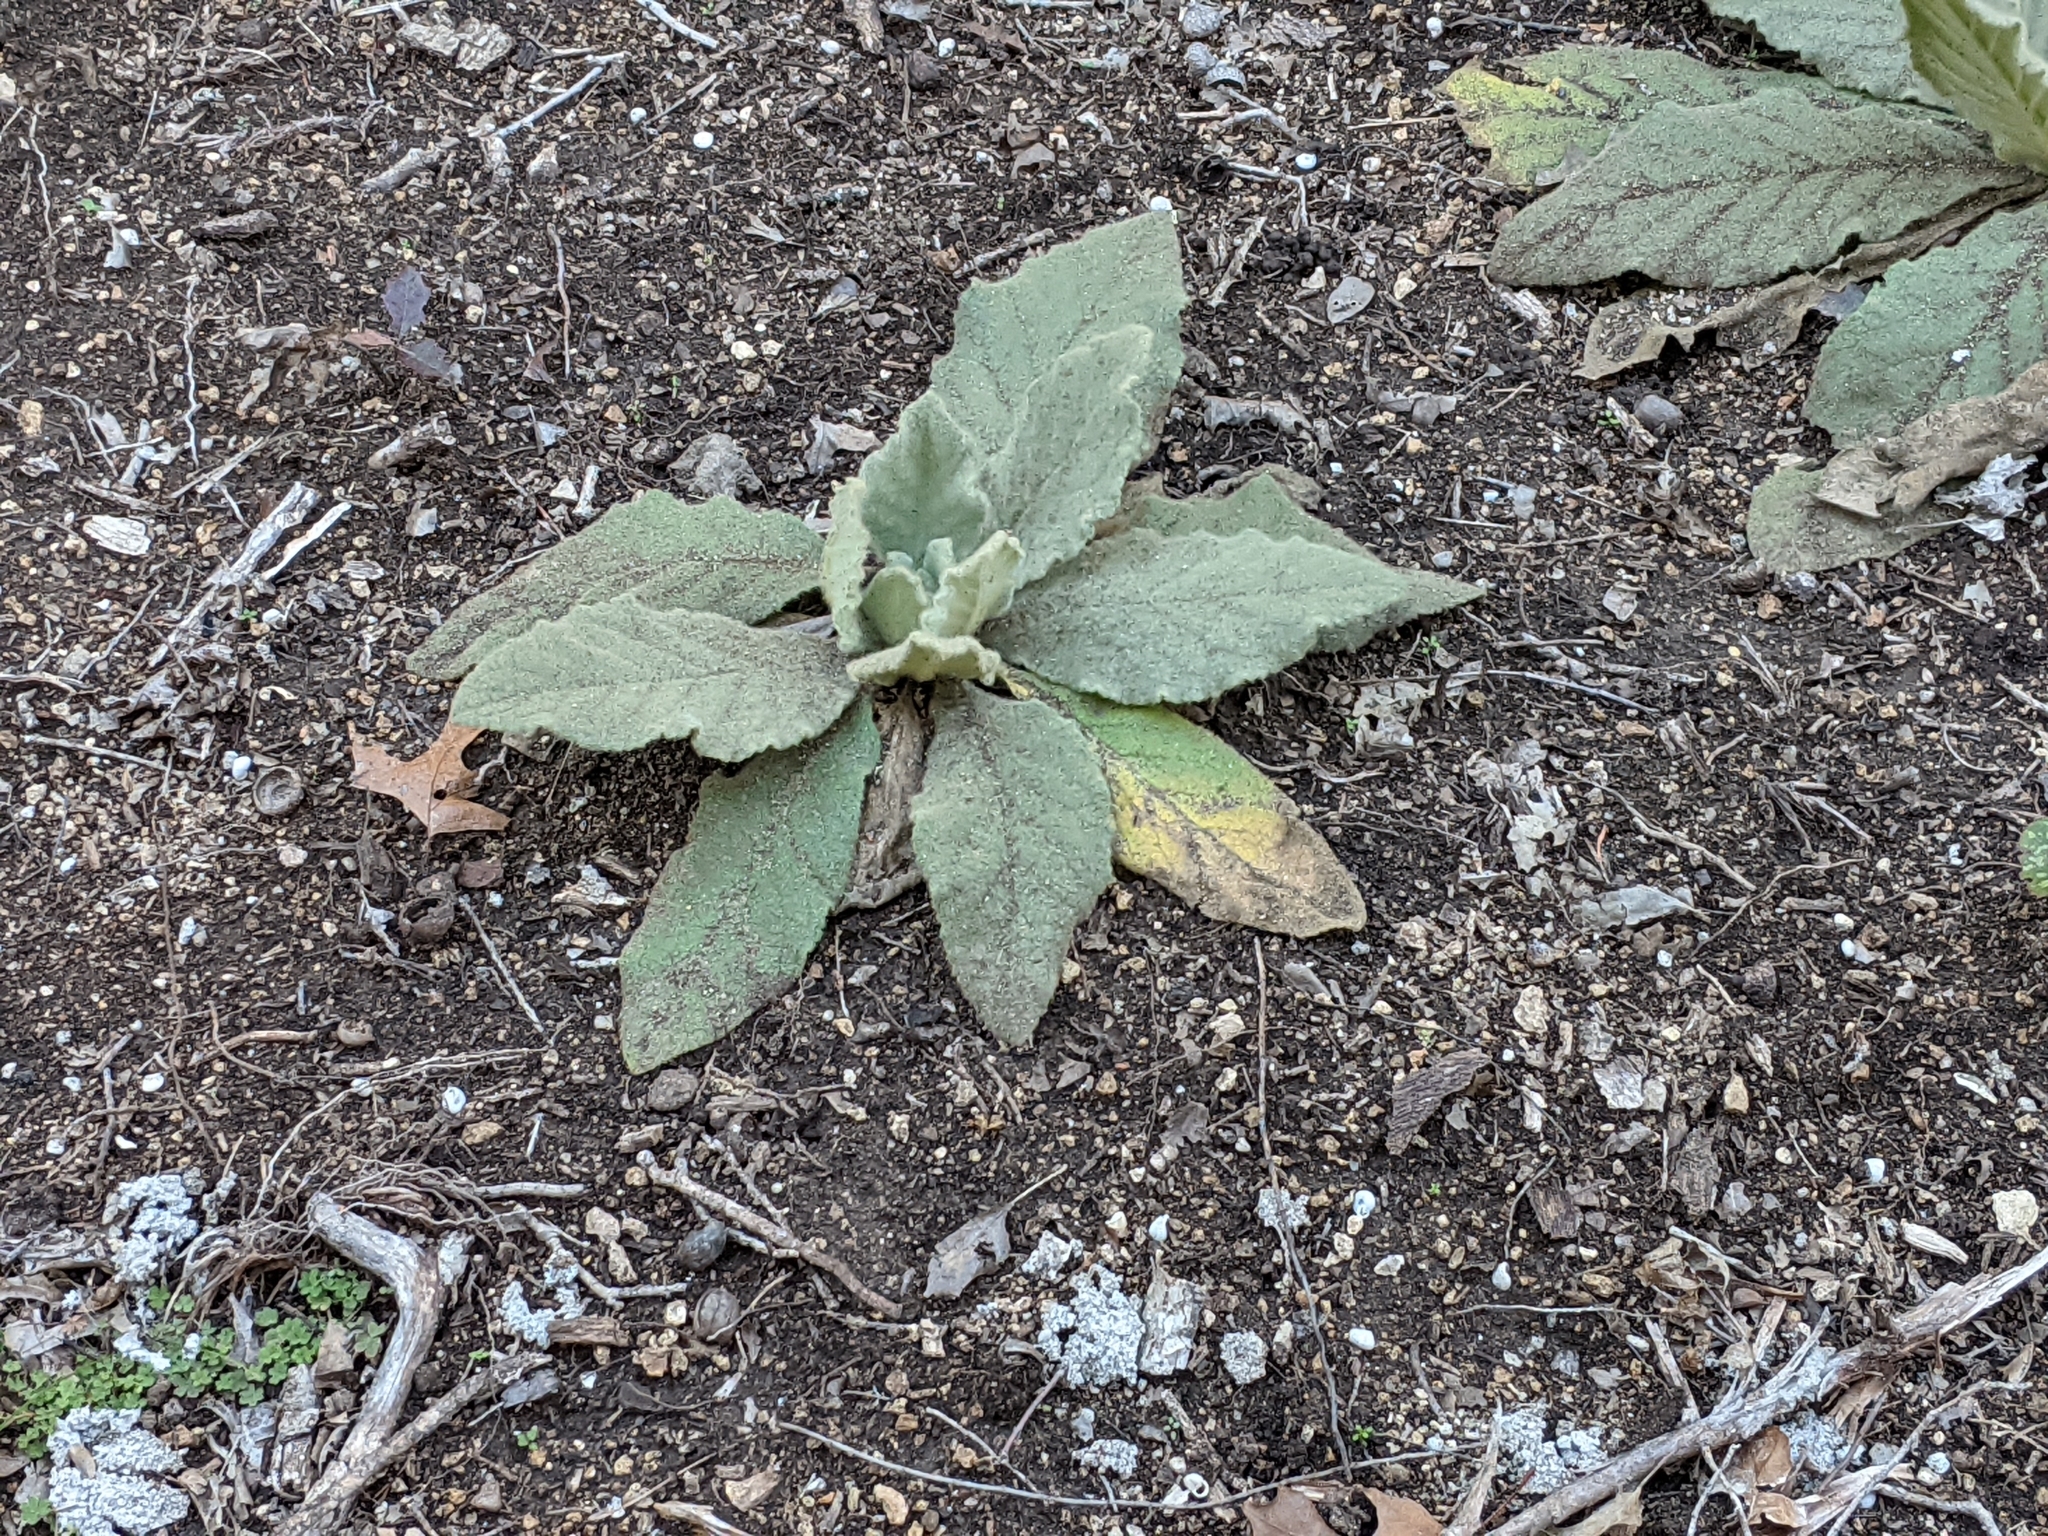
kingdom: Plantae
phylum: Tracheophyta
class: Magnoliopsida
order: Lamiales
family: Scrophulariaceae
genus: Verbascum
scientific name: Verbascum thapsus
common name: Common mullein
